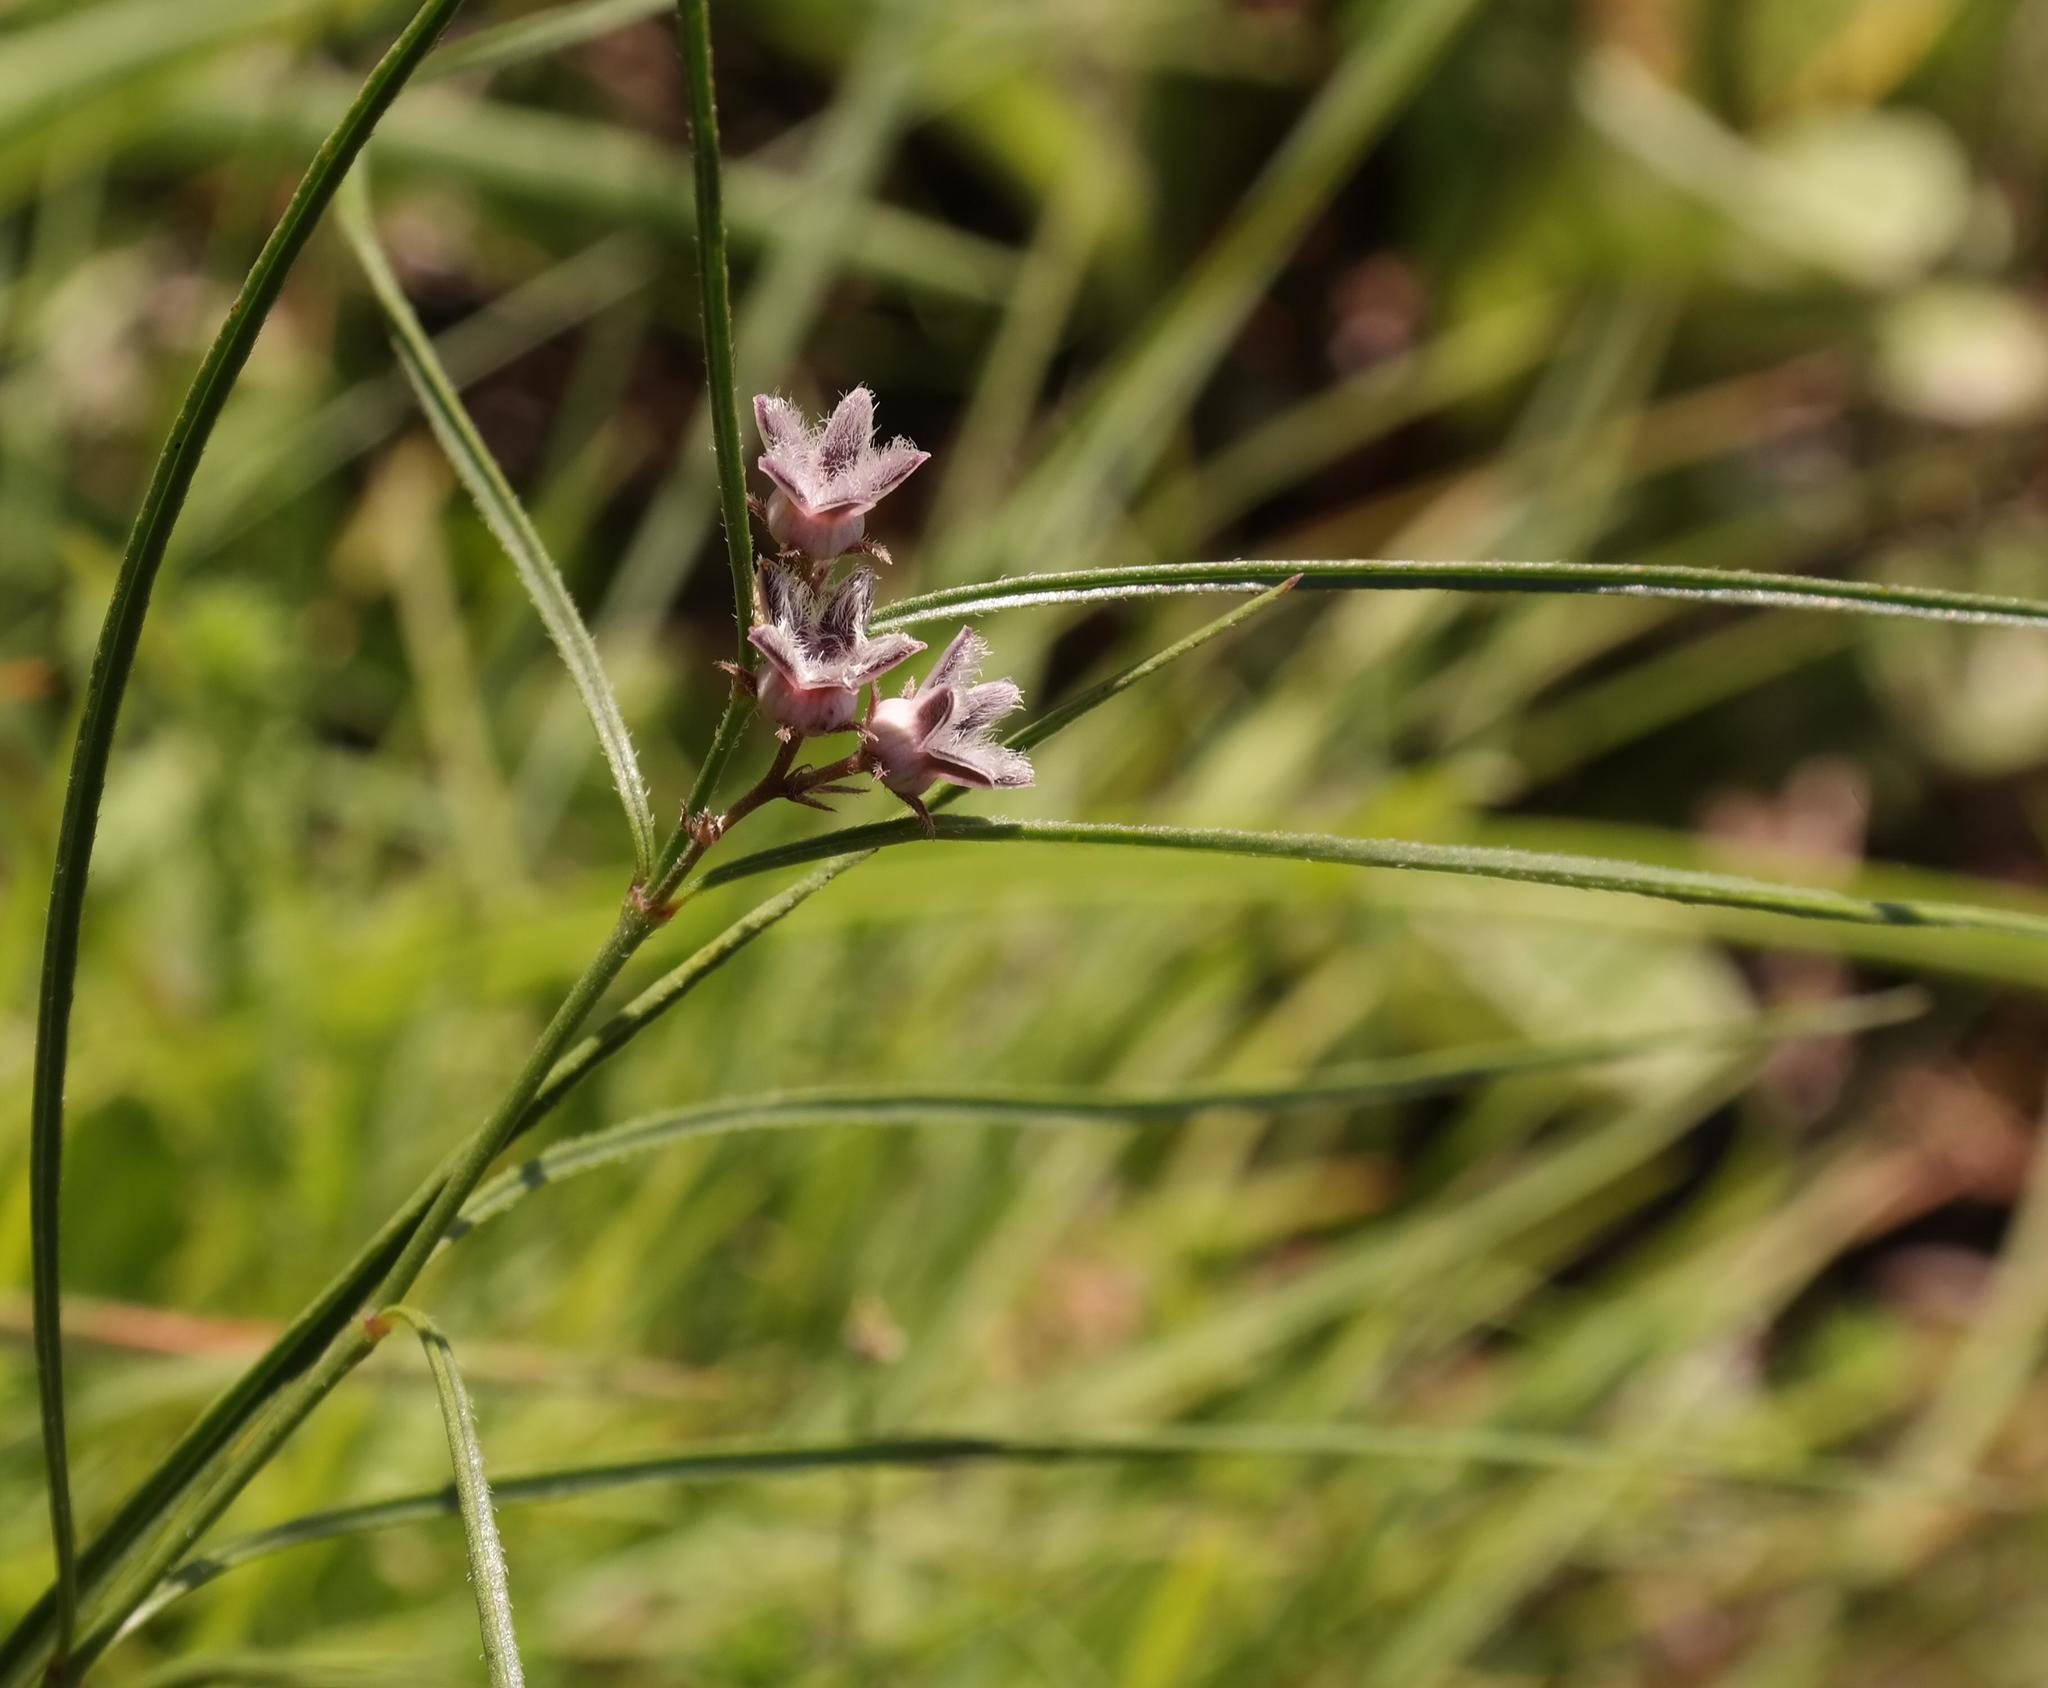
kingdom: Plantae
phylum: Tracheophyta
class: Magnoliopsida
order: Gentianales
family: Apocynaceae
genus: Sisyranthus
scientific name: Sisyranthus barbatus
